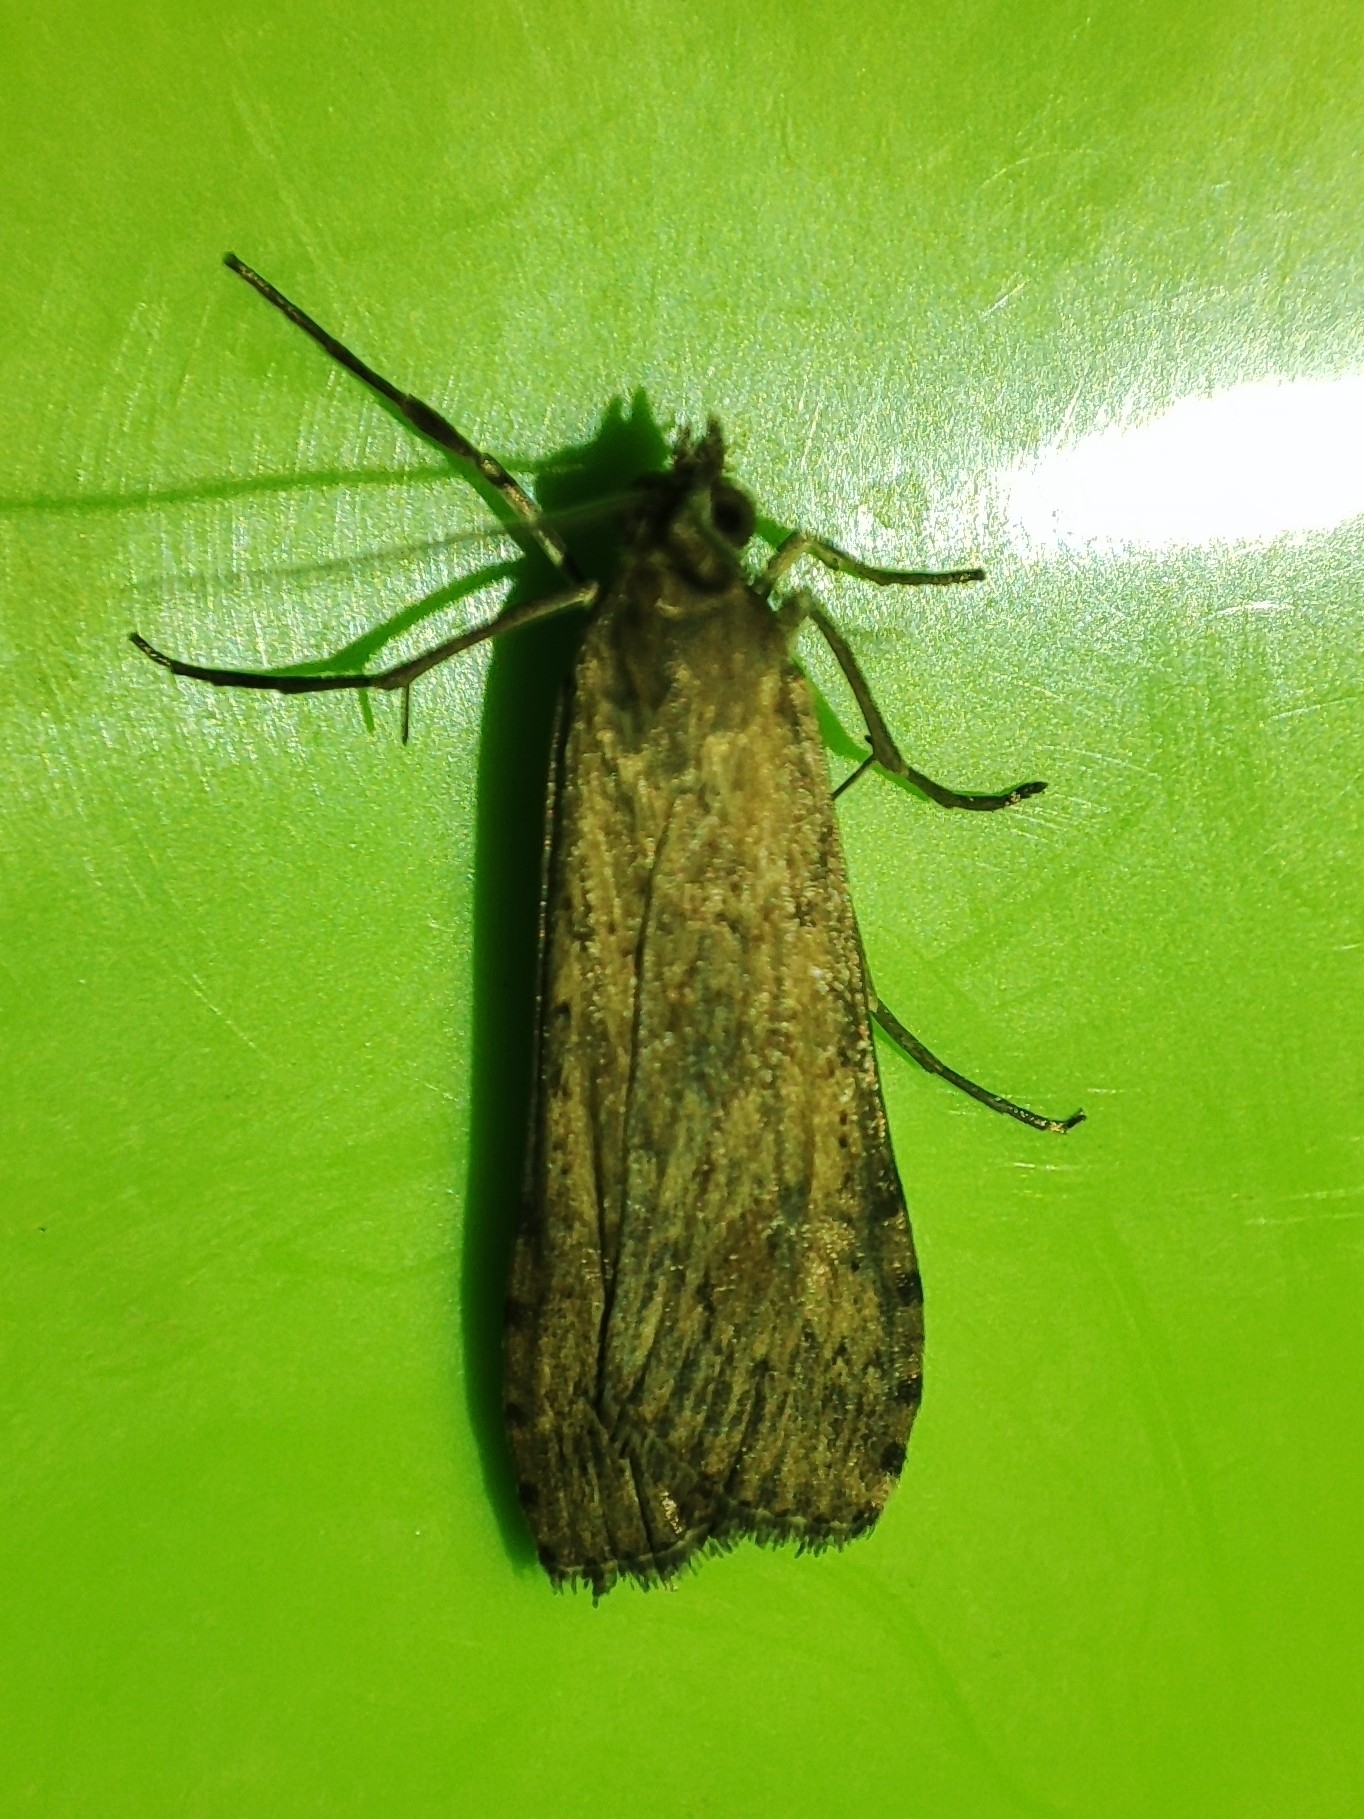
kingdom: Animalia
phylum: Arthropoda
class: Insecta
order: Lepidoptera
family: Crambidae
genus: Nomophila
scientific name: Nomophila noctuella
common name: Rush veneer
